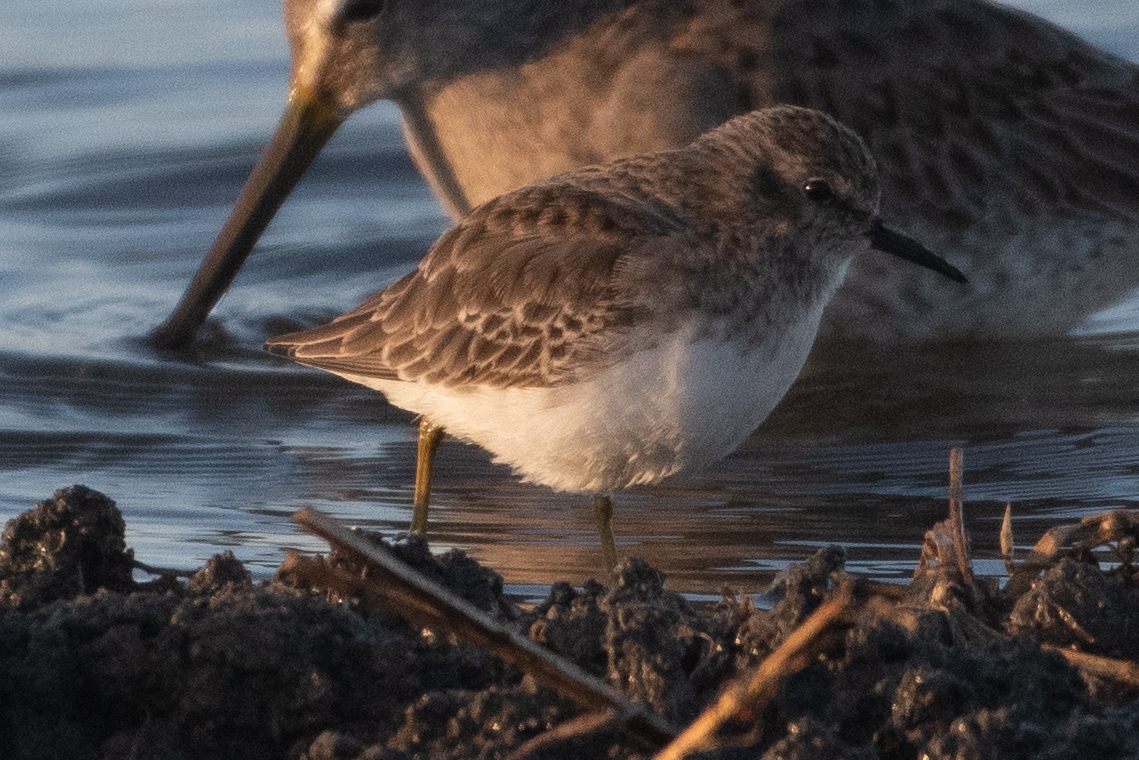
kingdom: Animalia
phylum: Chordata
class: Aves
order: Charadriiformes
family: Scolopacidae
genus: Calidris
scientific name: Calidris minutilla
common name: Least sandpiper
